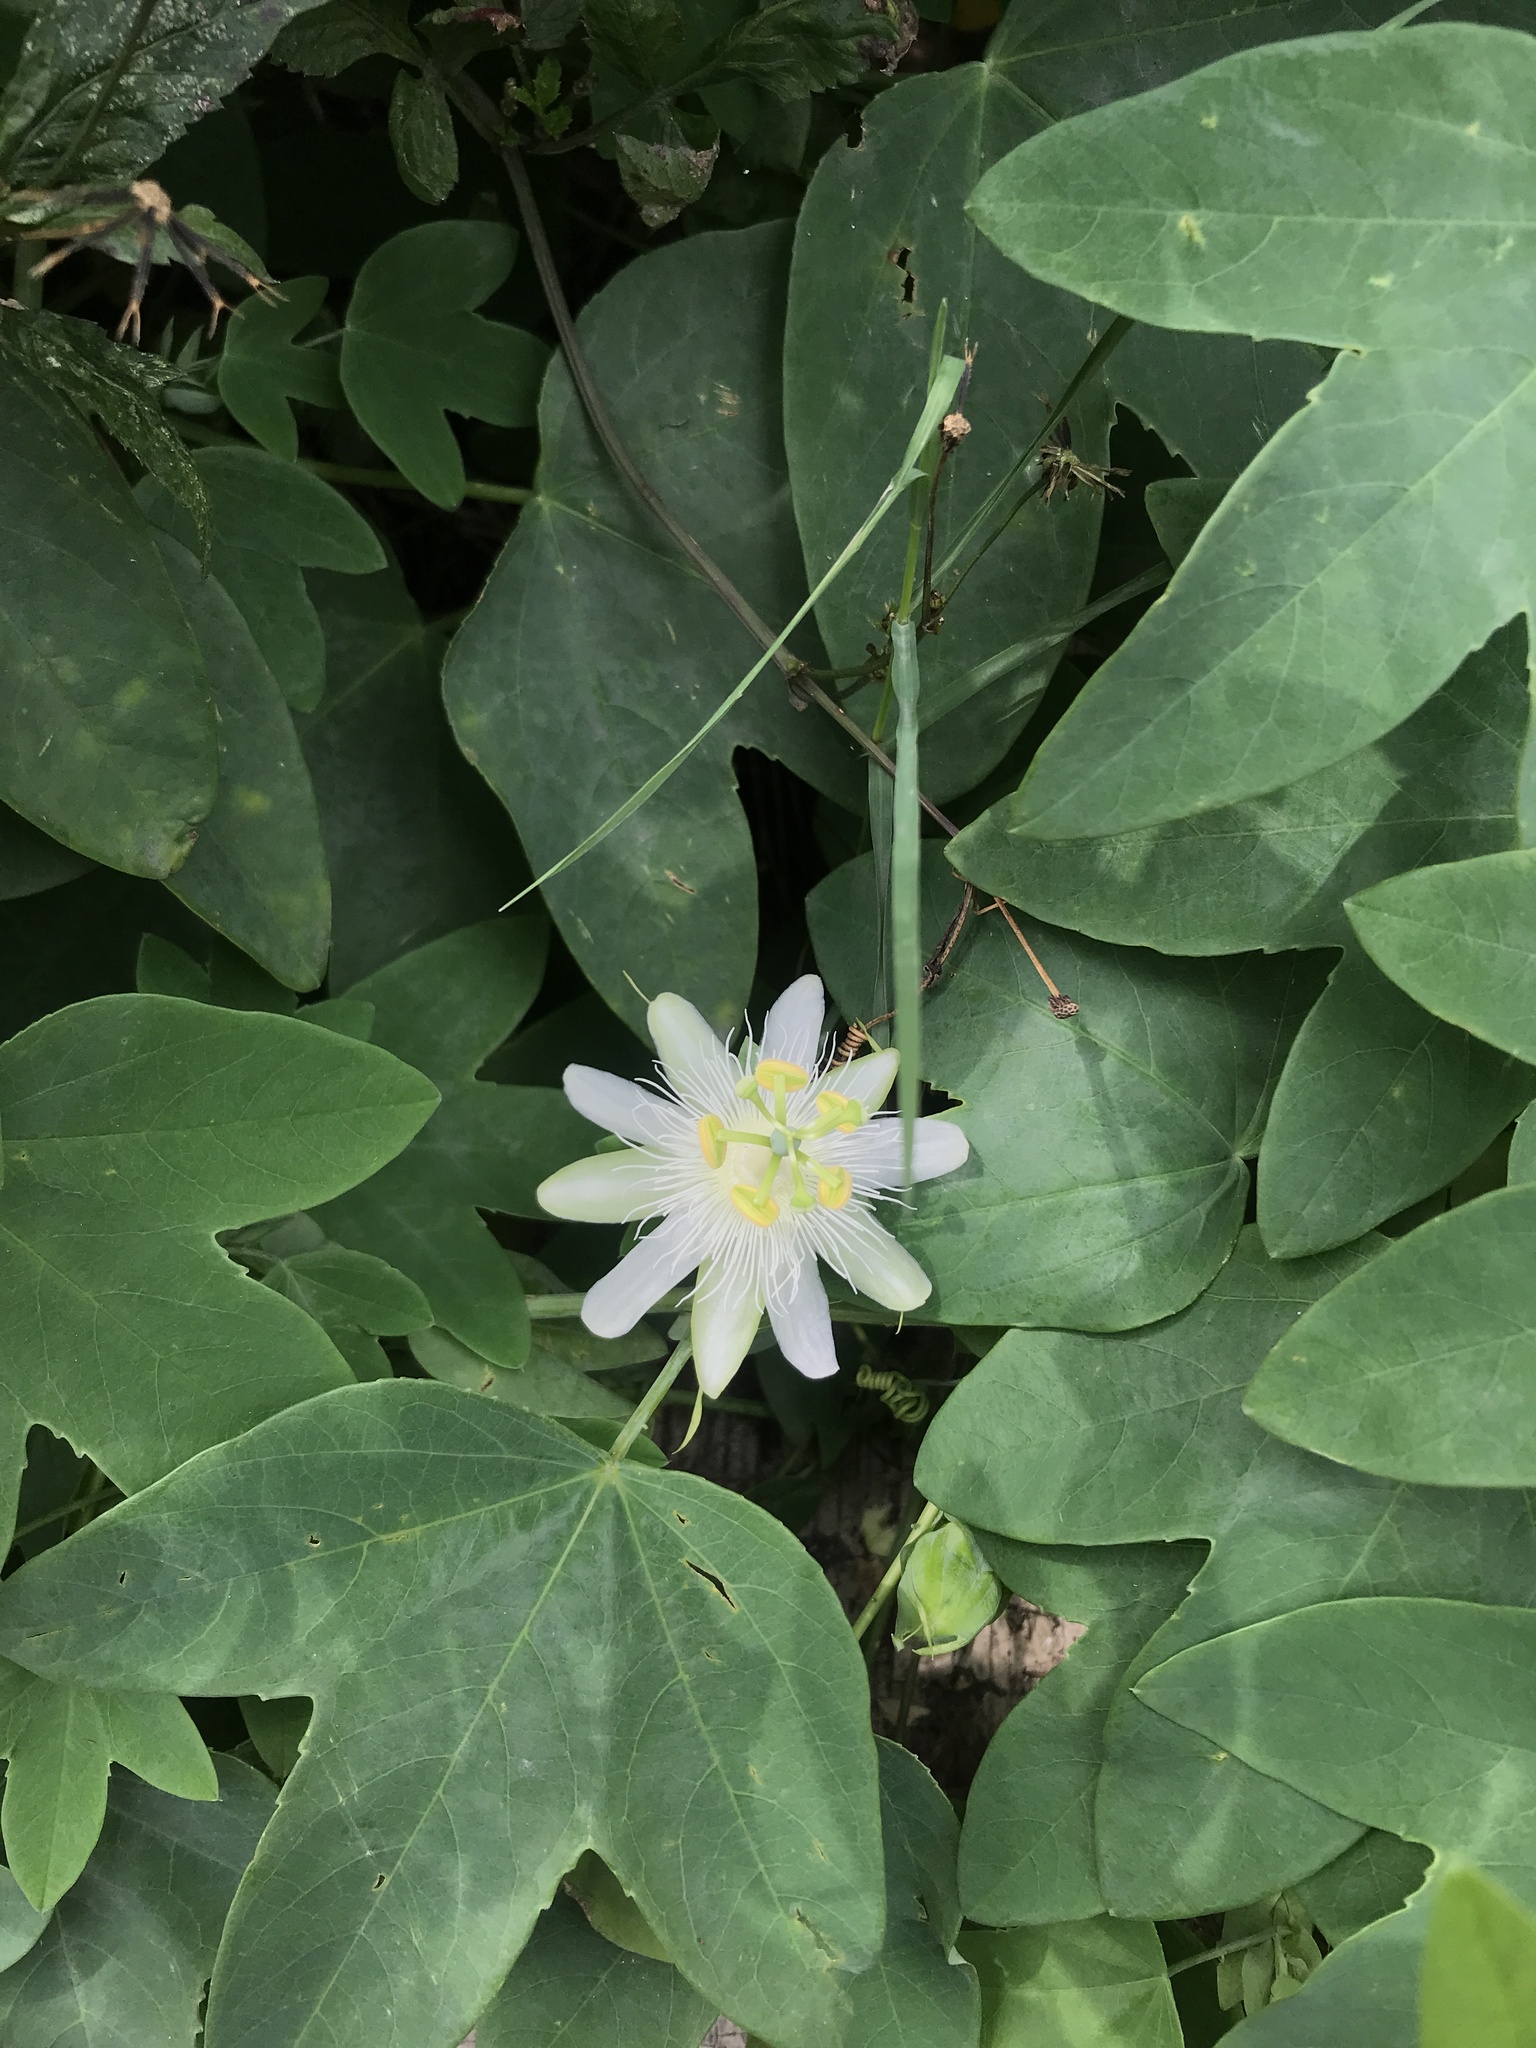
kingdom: Plantae
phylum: Tracheophyta
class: Magnoliopsida
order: Malpighiales
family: Passifloraceae
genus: Passiflora
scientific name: Passiflora subpeltata
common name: White passionflower
